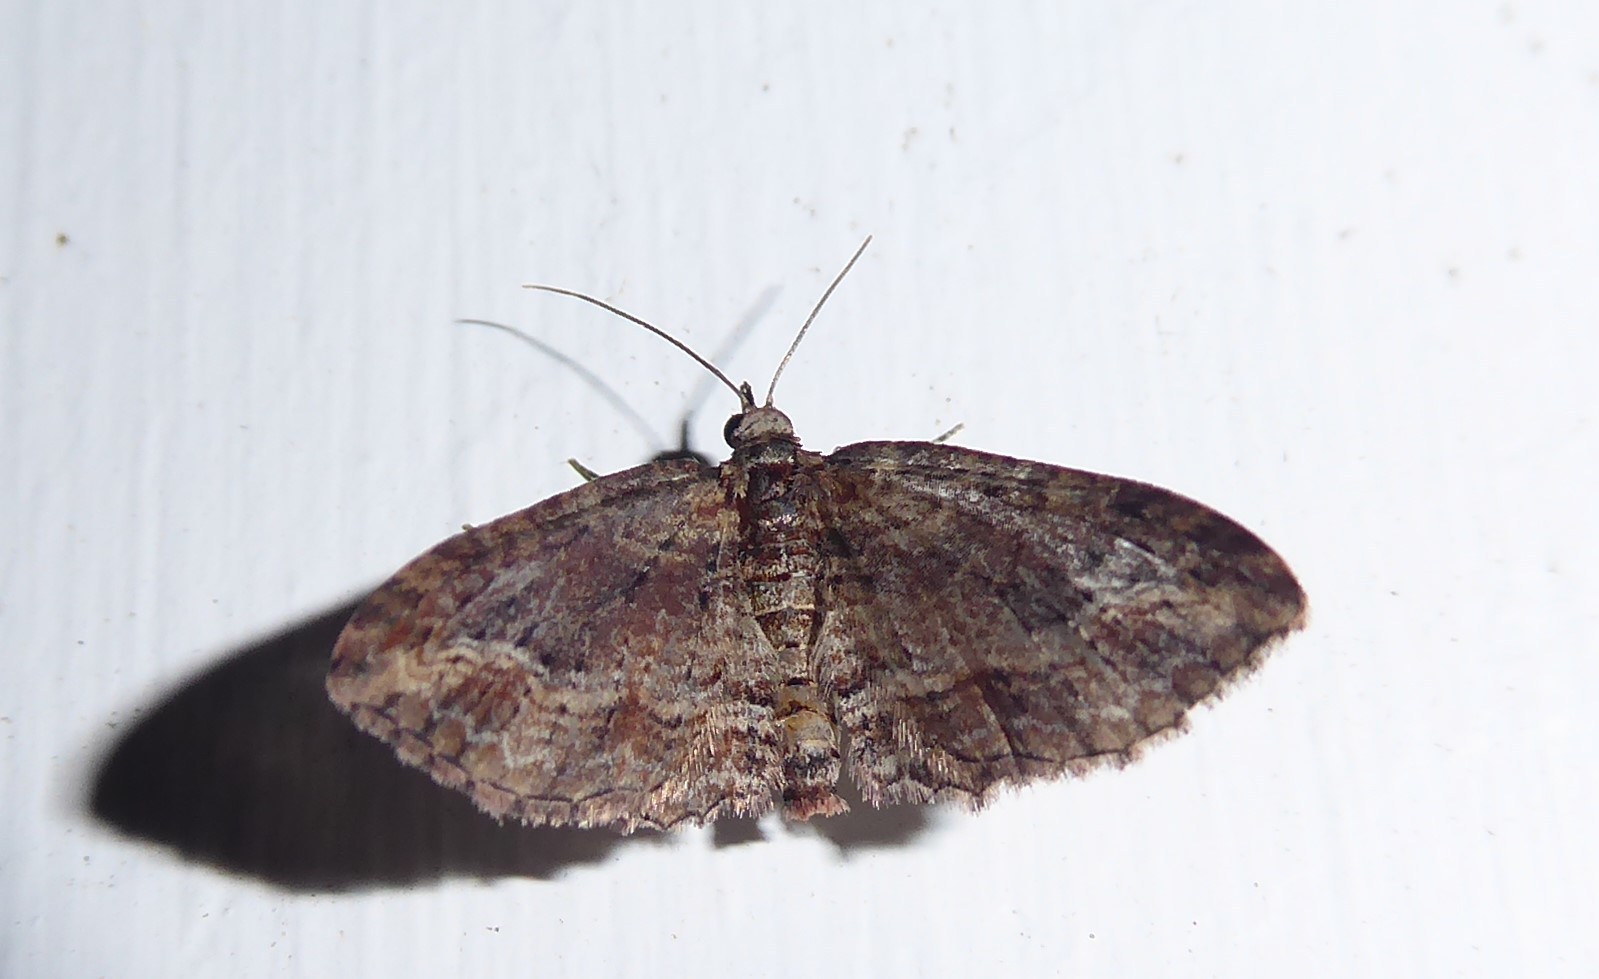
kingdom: Animalia
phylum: Arthropoda
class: Insecta
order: Lepidoptera
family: Geometridae
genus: Chloroclystis
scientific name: Chloroclystis filata
